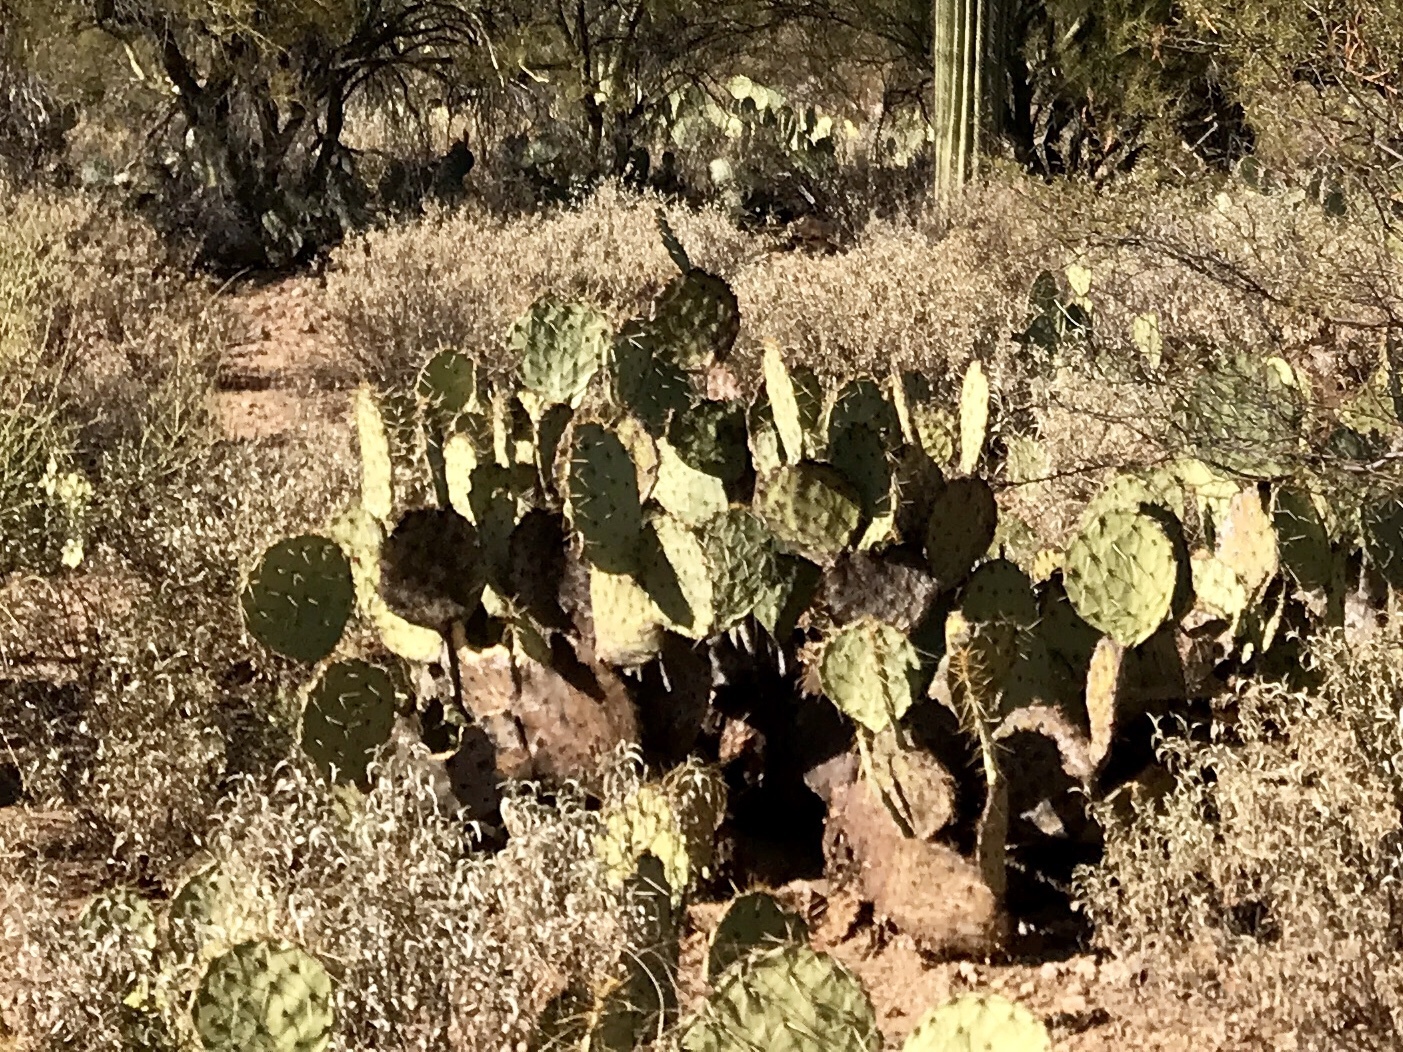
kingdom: Plantae
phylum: Tracheophyta
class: Magnoliopsida
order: Caryophyllales
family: Cactaceae
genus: Opuntia
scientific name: Opuntia engelmannii
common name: Cactus-apple
